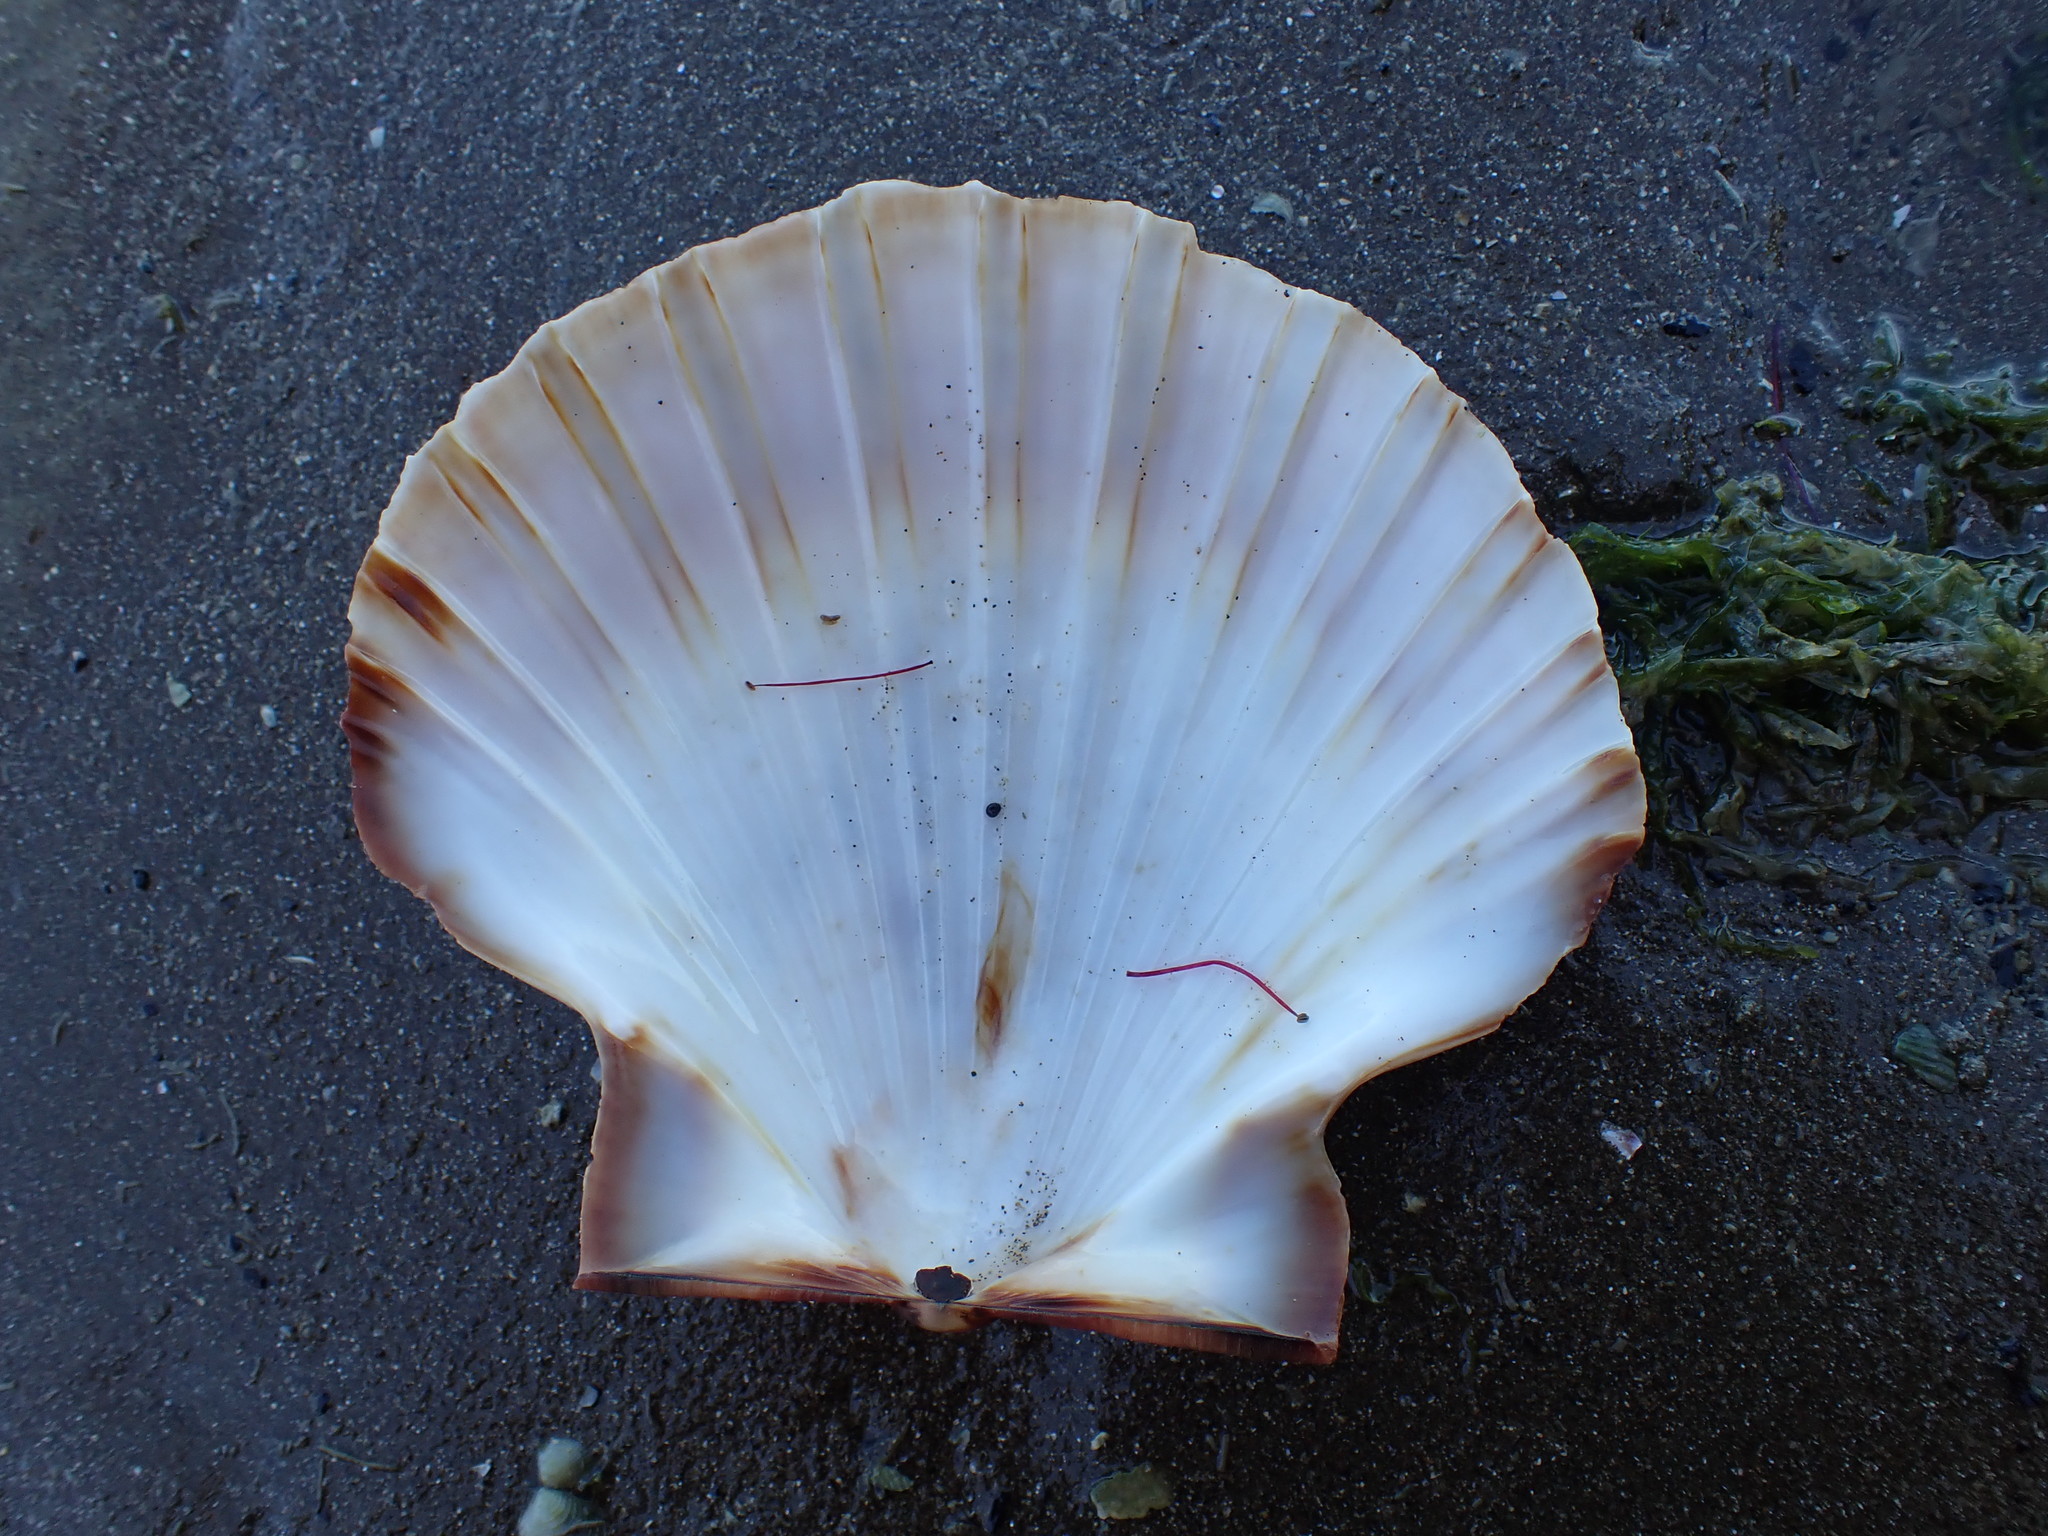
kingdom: Animalia
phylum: Mollusca
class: Bivalvia
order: Pectinida
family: Pectinidae
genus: Pecten
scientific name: Pecten novaezelandiae
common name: New zealand scallop
